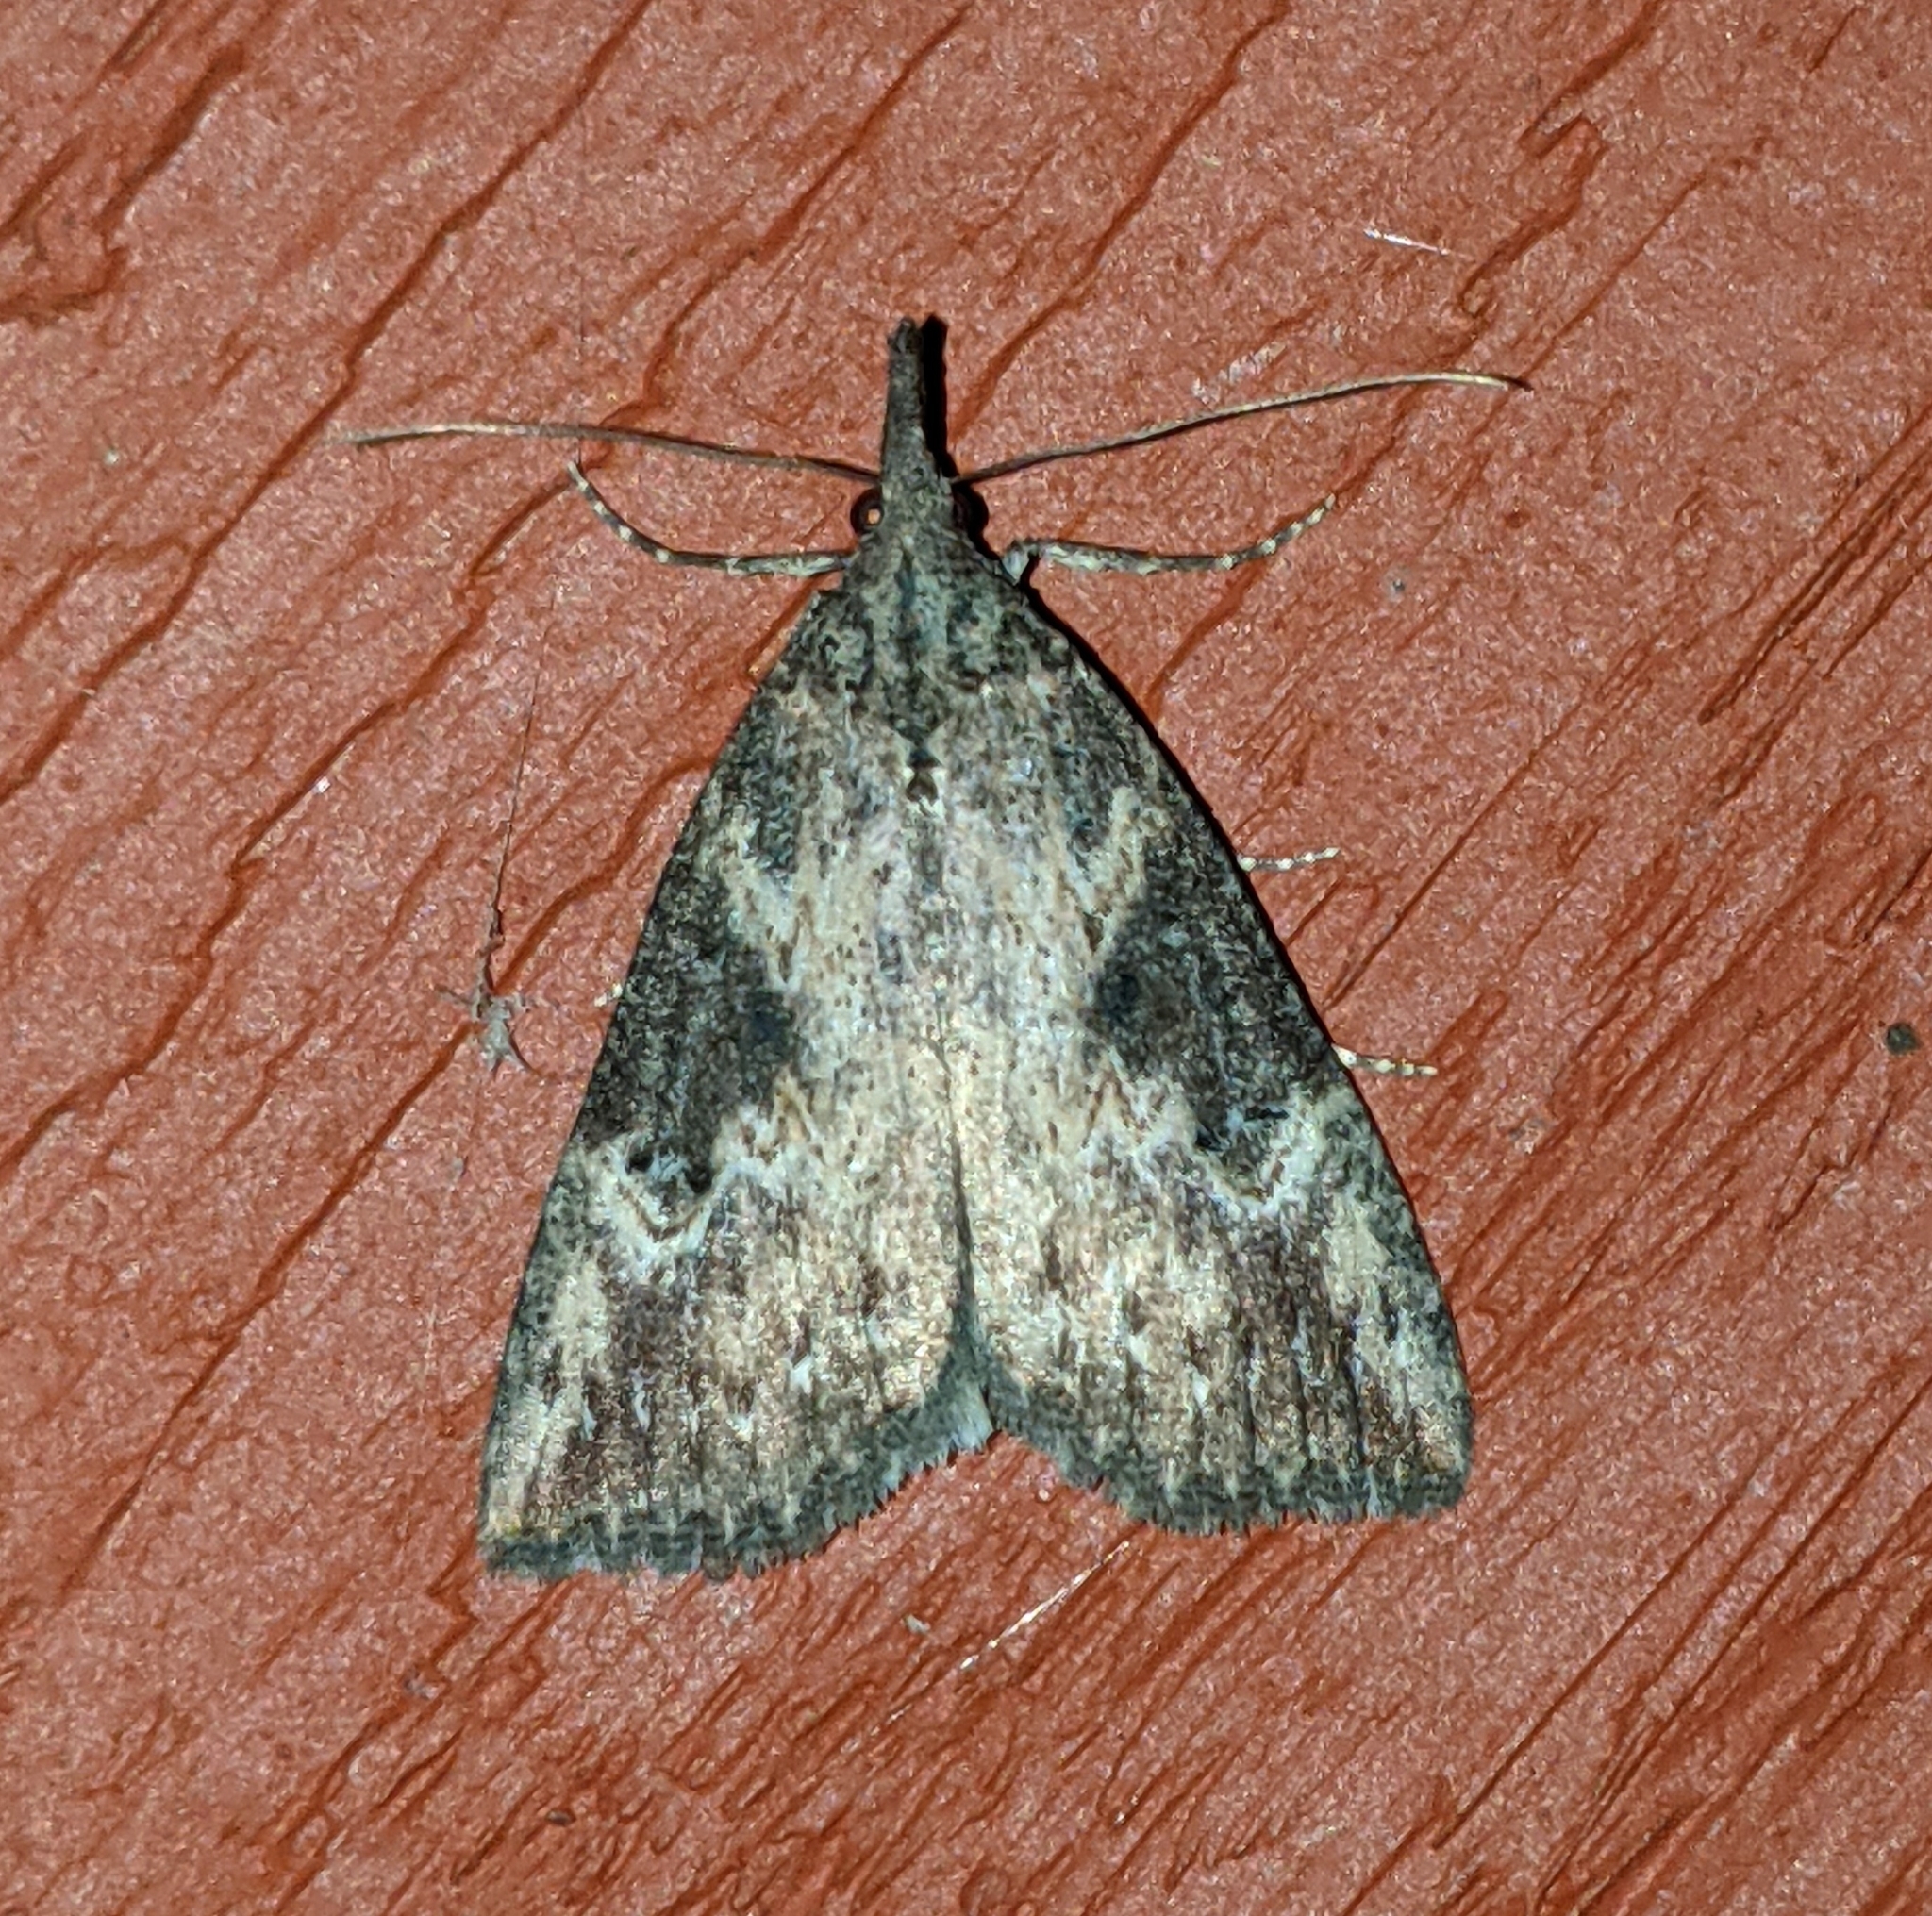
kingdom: Animalia
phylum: Arthropoda
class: Insecta
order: Lepidoptera
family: Erebidae
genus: Hypena
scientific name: Hypena humuli
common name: Hop vine snout
